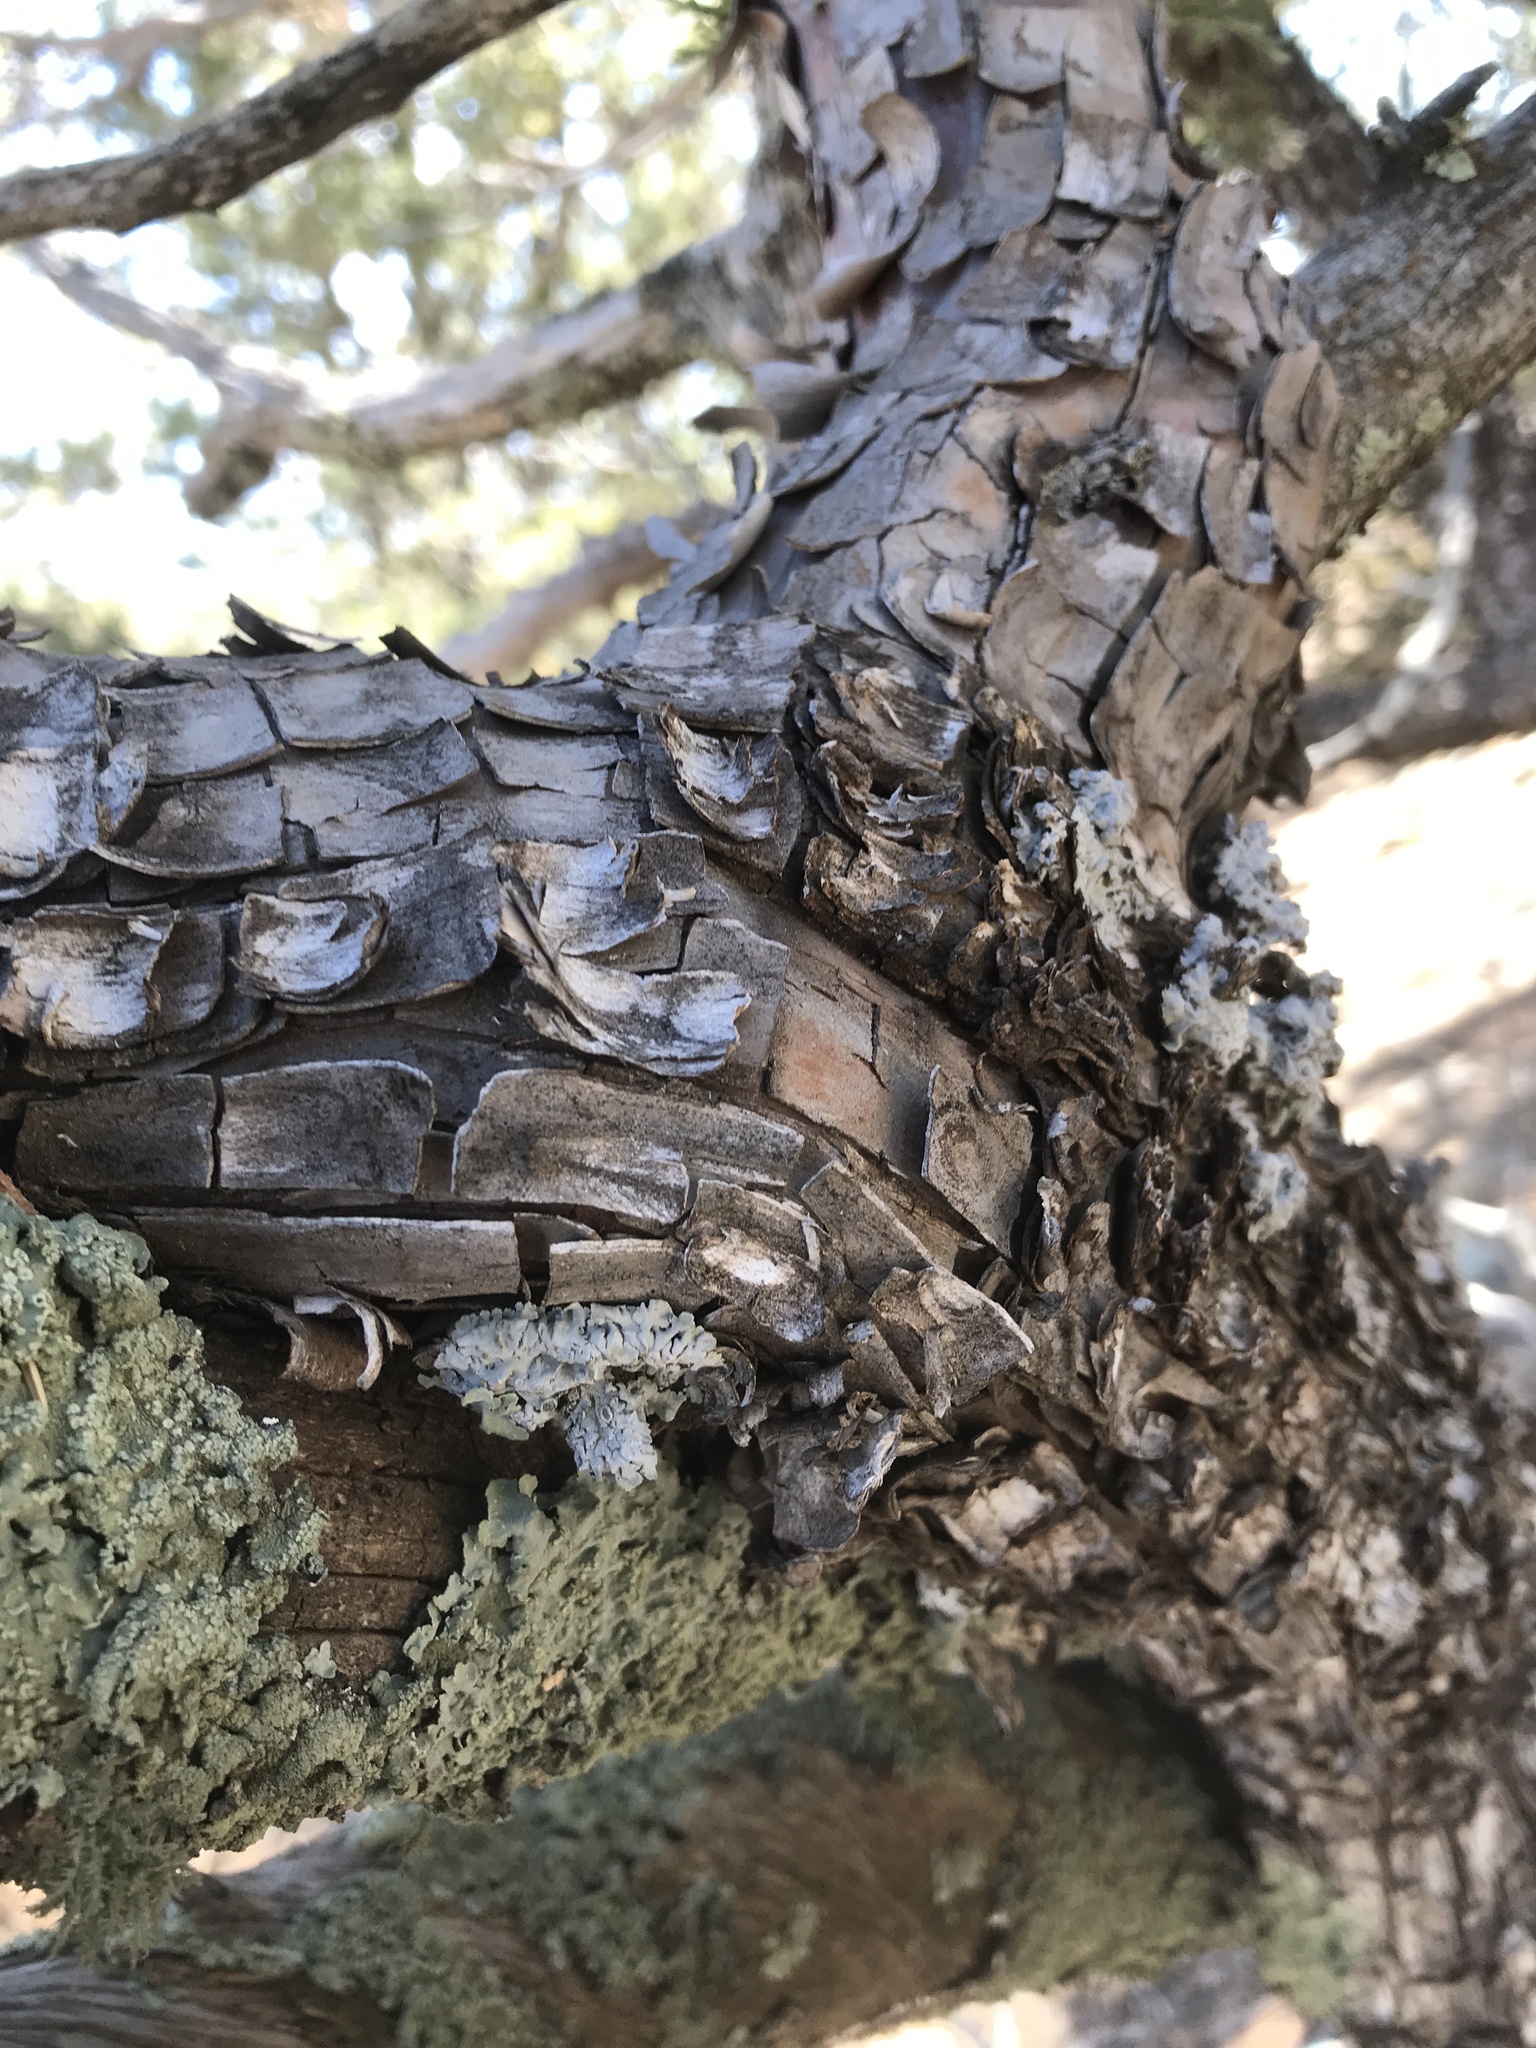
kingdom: Plantae
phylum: Tracheophyta
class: Pinopsida
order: Pinales
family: Cupressaceae
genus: Juniperus
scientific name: Juniperus deppeana
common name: Alligator juniper
